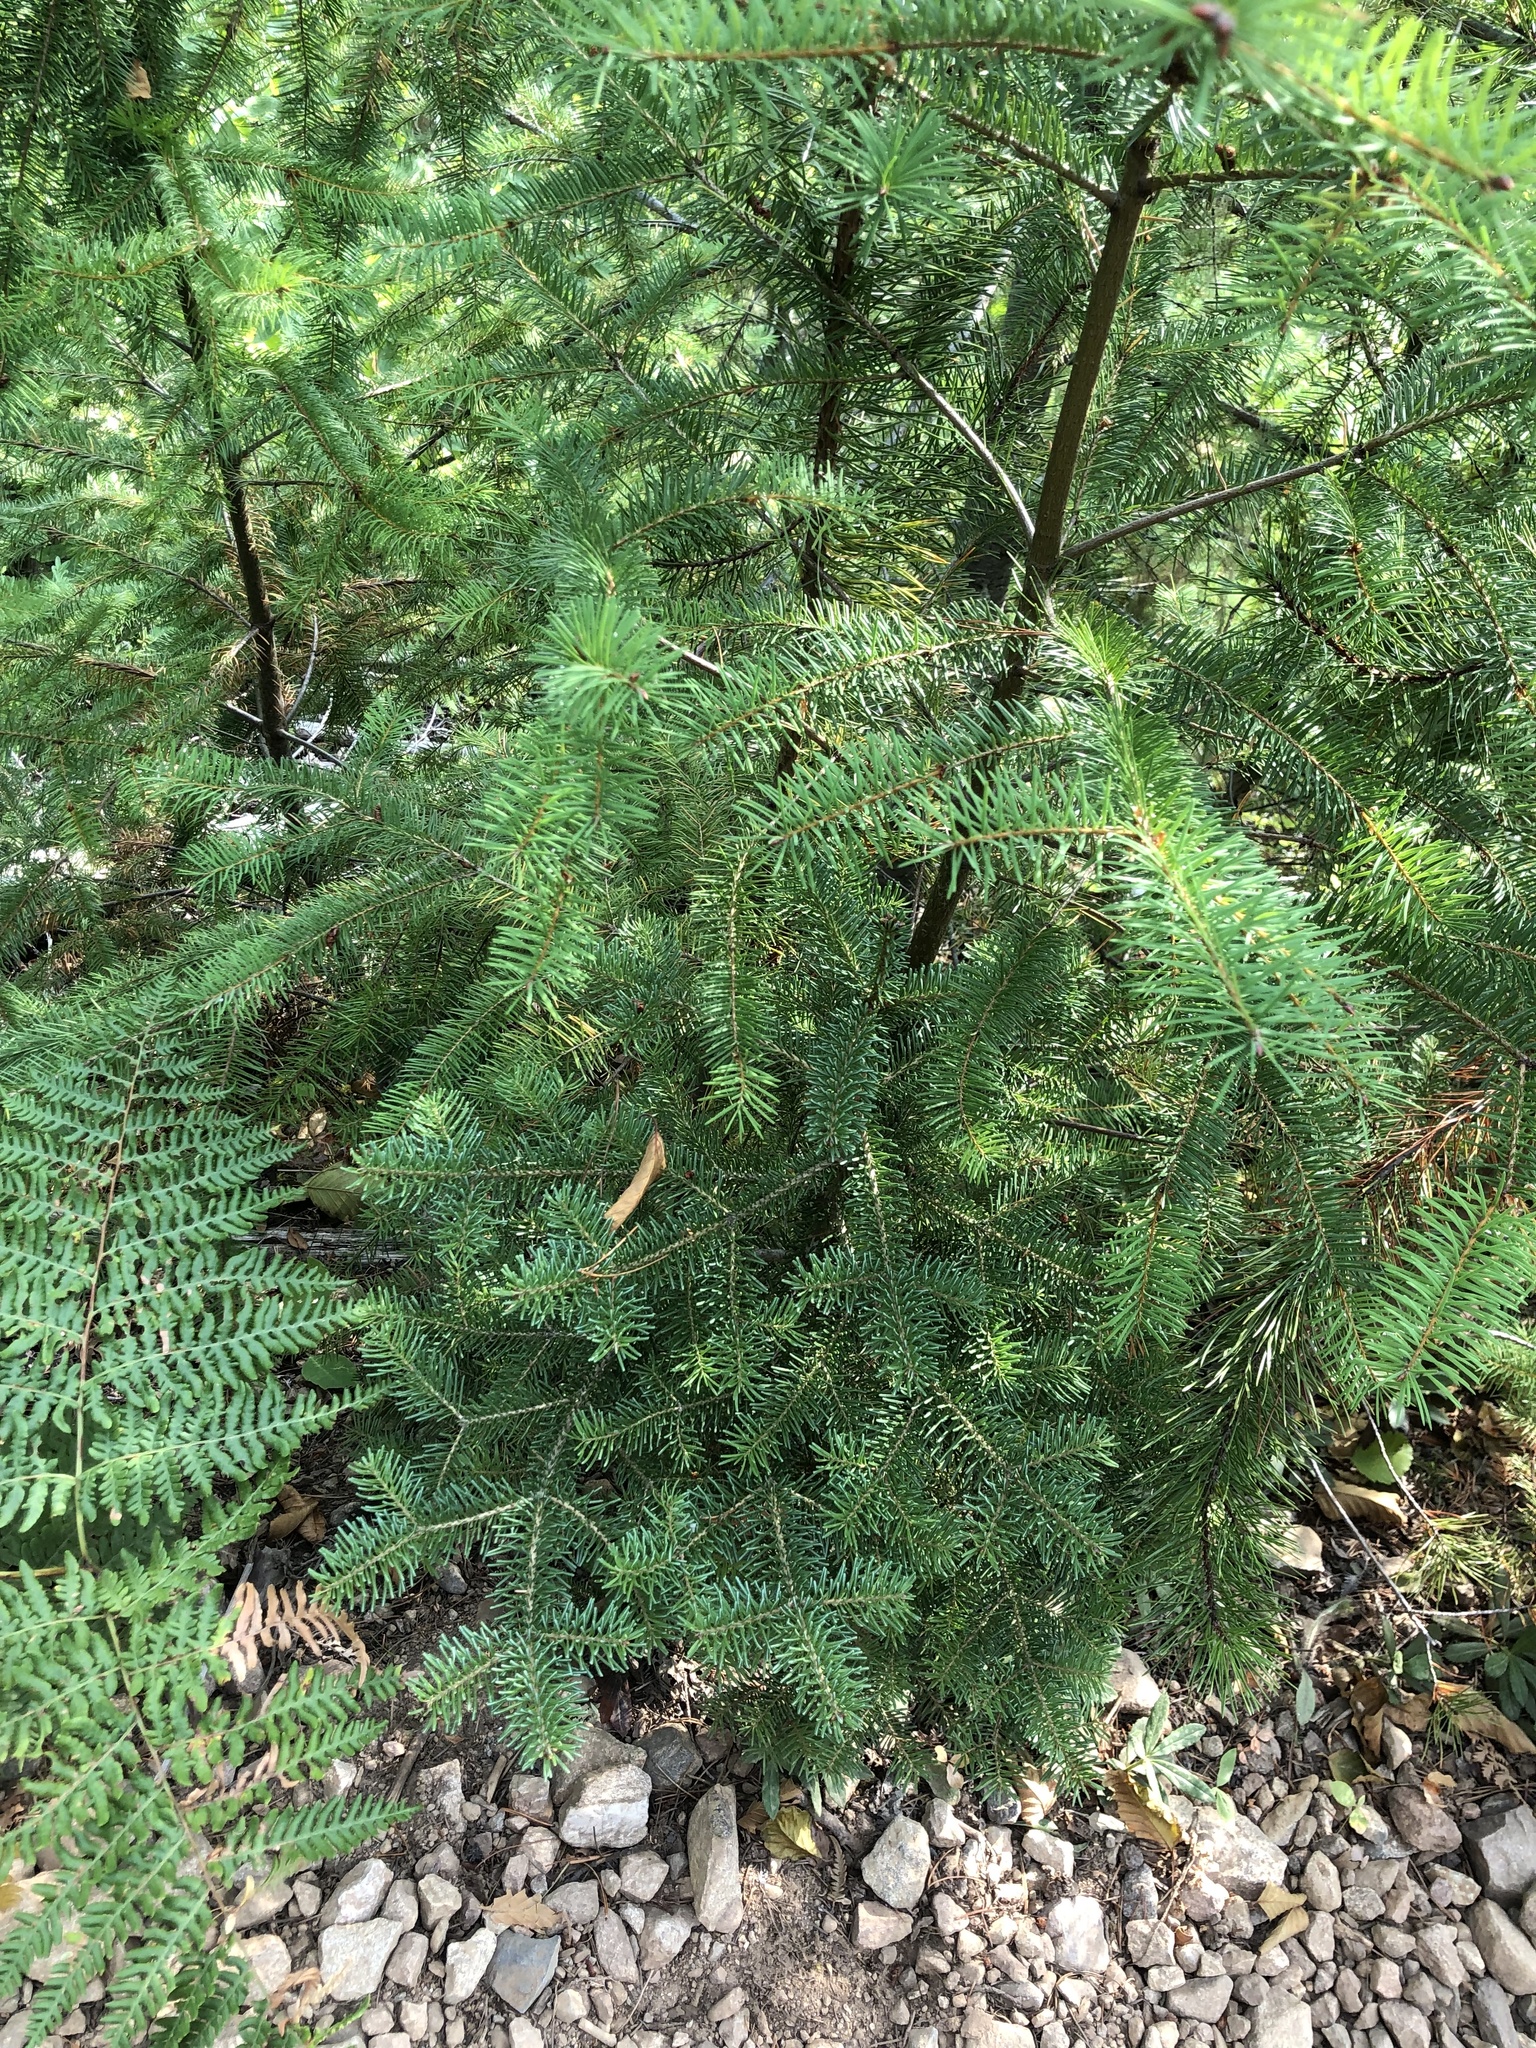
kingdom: Plantae
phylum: Tracheophyta
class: Pinopsida
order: Pinales
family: Pinaceae
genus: Abies
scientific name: Abies lasiocarpa
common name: Subalpine fir
